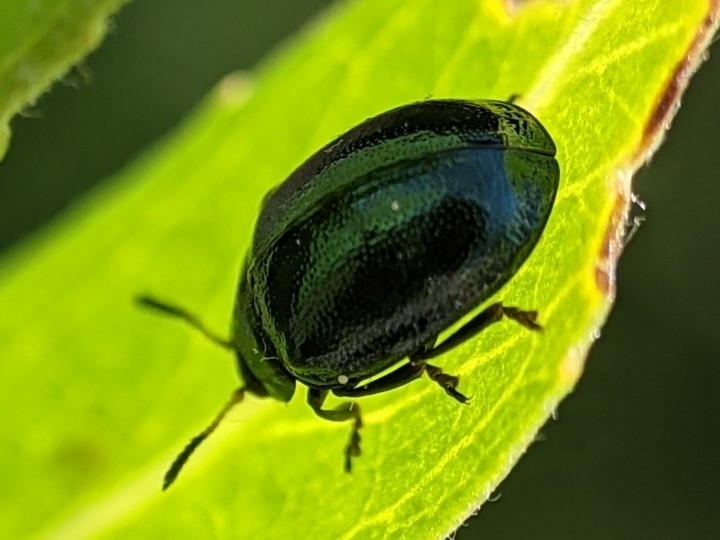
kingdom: Animalia
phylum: Arthropoda
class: Insecta
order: Coleoptera
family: Chrysomelidae
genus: Plagiodera
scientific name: Plagiodera versicolora
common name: Imported willow leaf beetle
